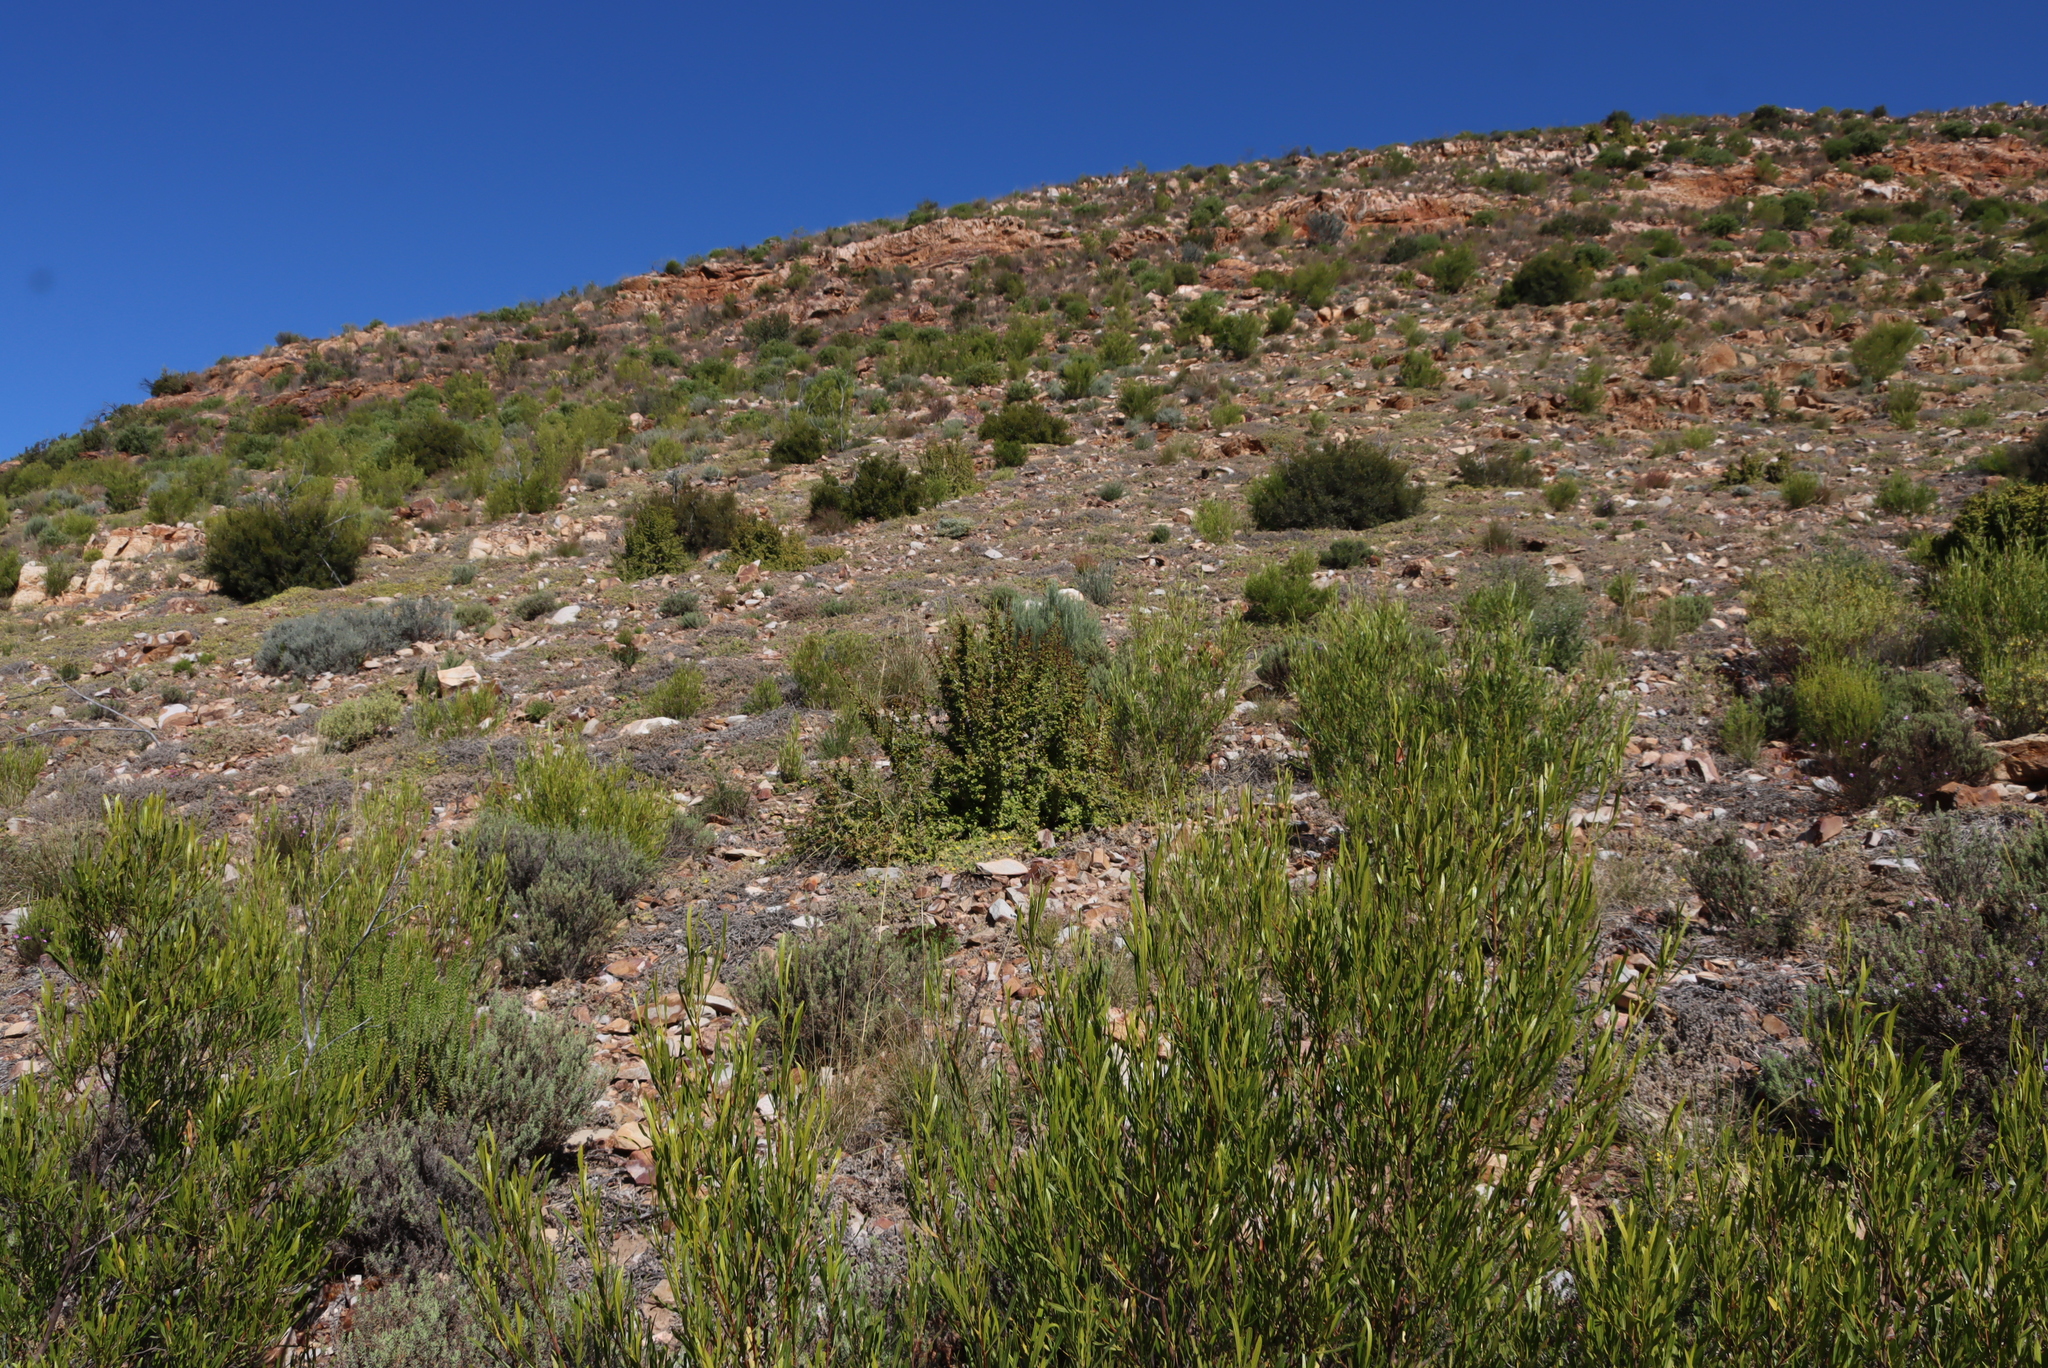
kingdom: Plantae
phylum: Tracheophyta
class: Magnoliopsida
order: Caryophyllales
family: Didiereaceae
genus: Portulacaria
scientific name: Portulacaria afra
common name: Elephant-bush
